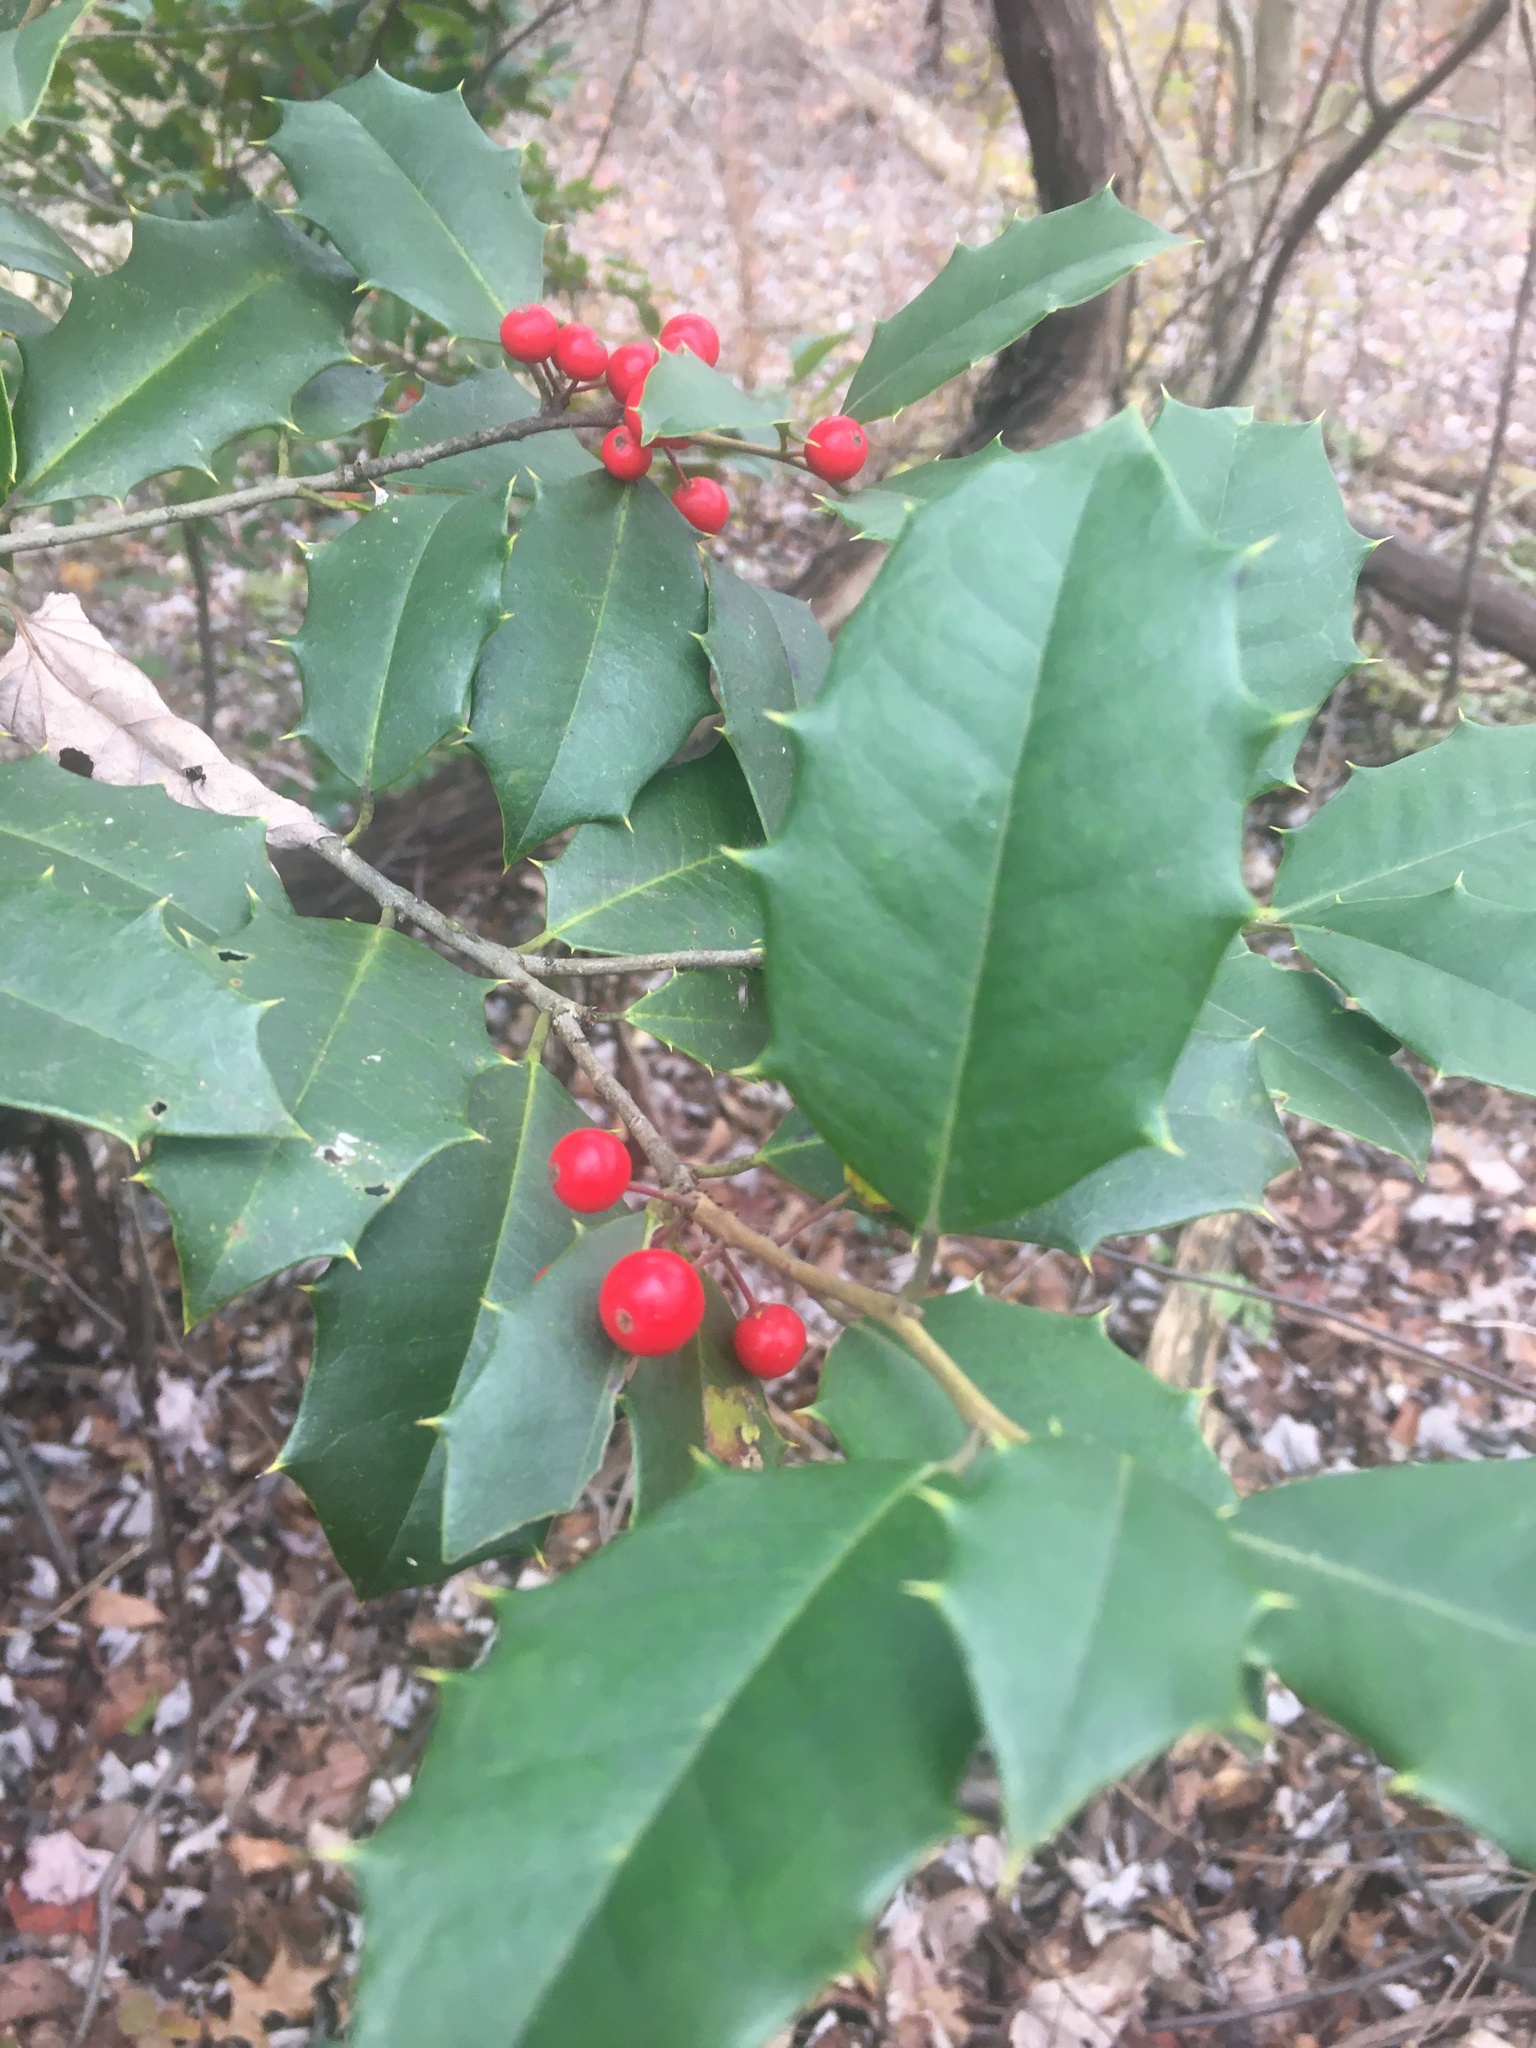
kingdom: Plantae
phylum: Tracheophyta
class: Magnoliopsida
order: Aquifoliales
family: Aquifoliaceae
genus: Ilex
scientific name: Ilex opaca
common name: American holly
